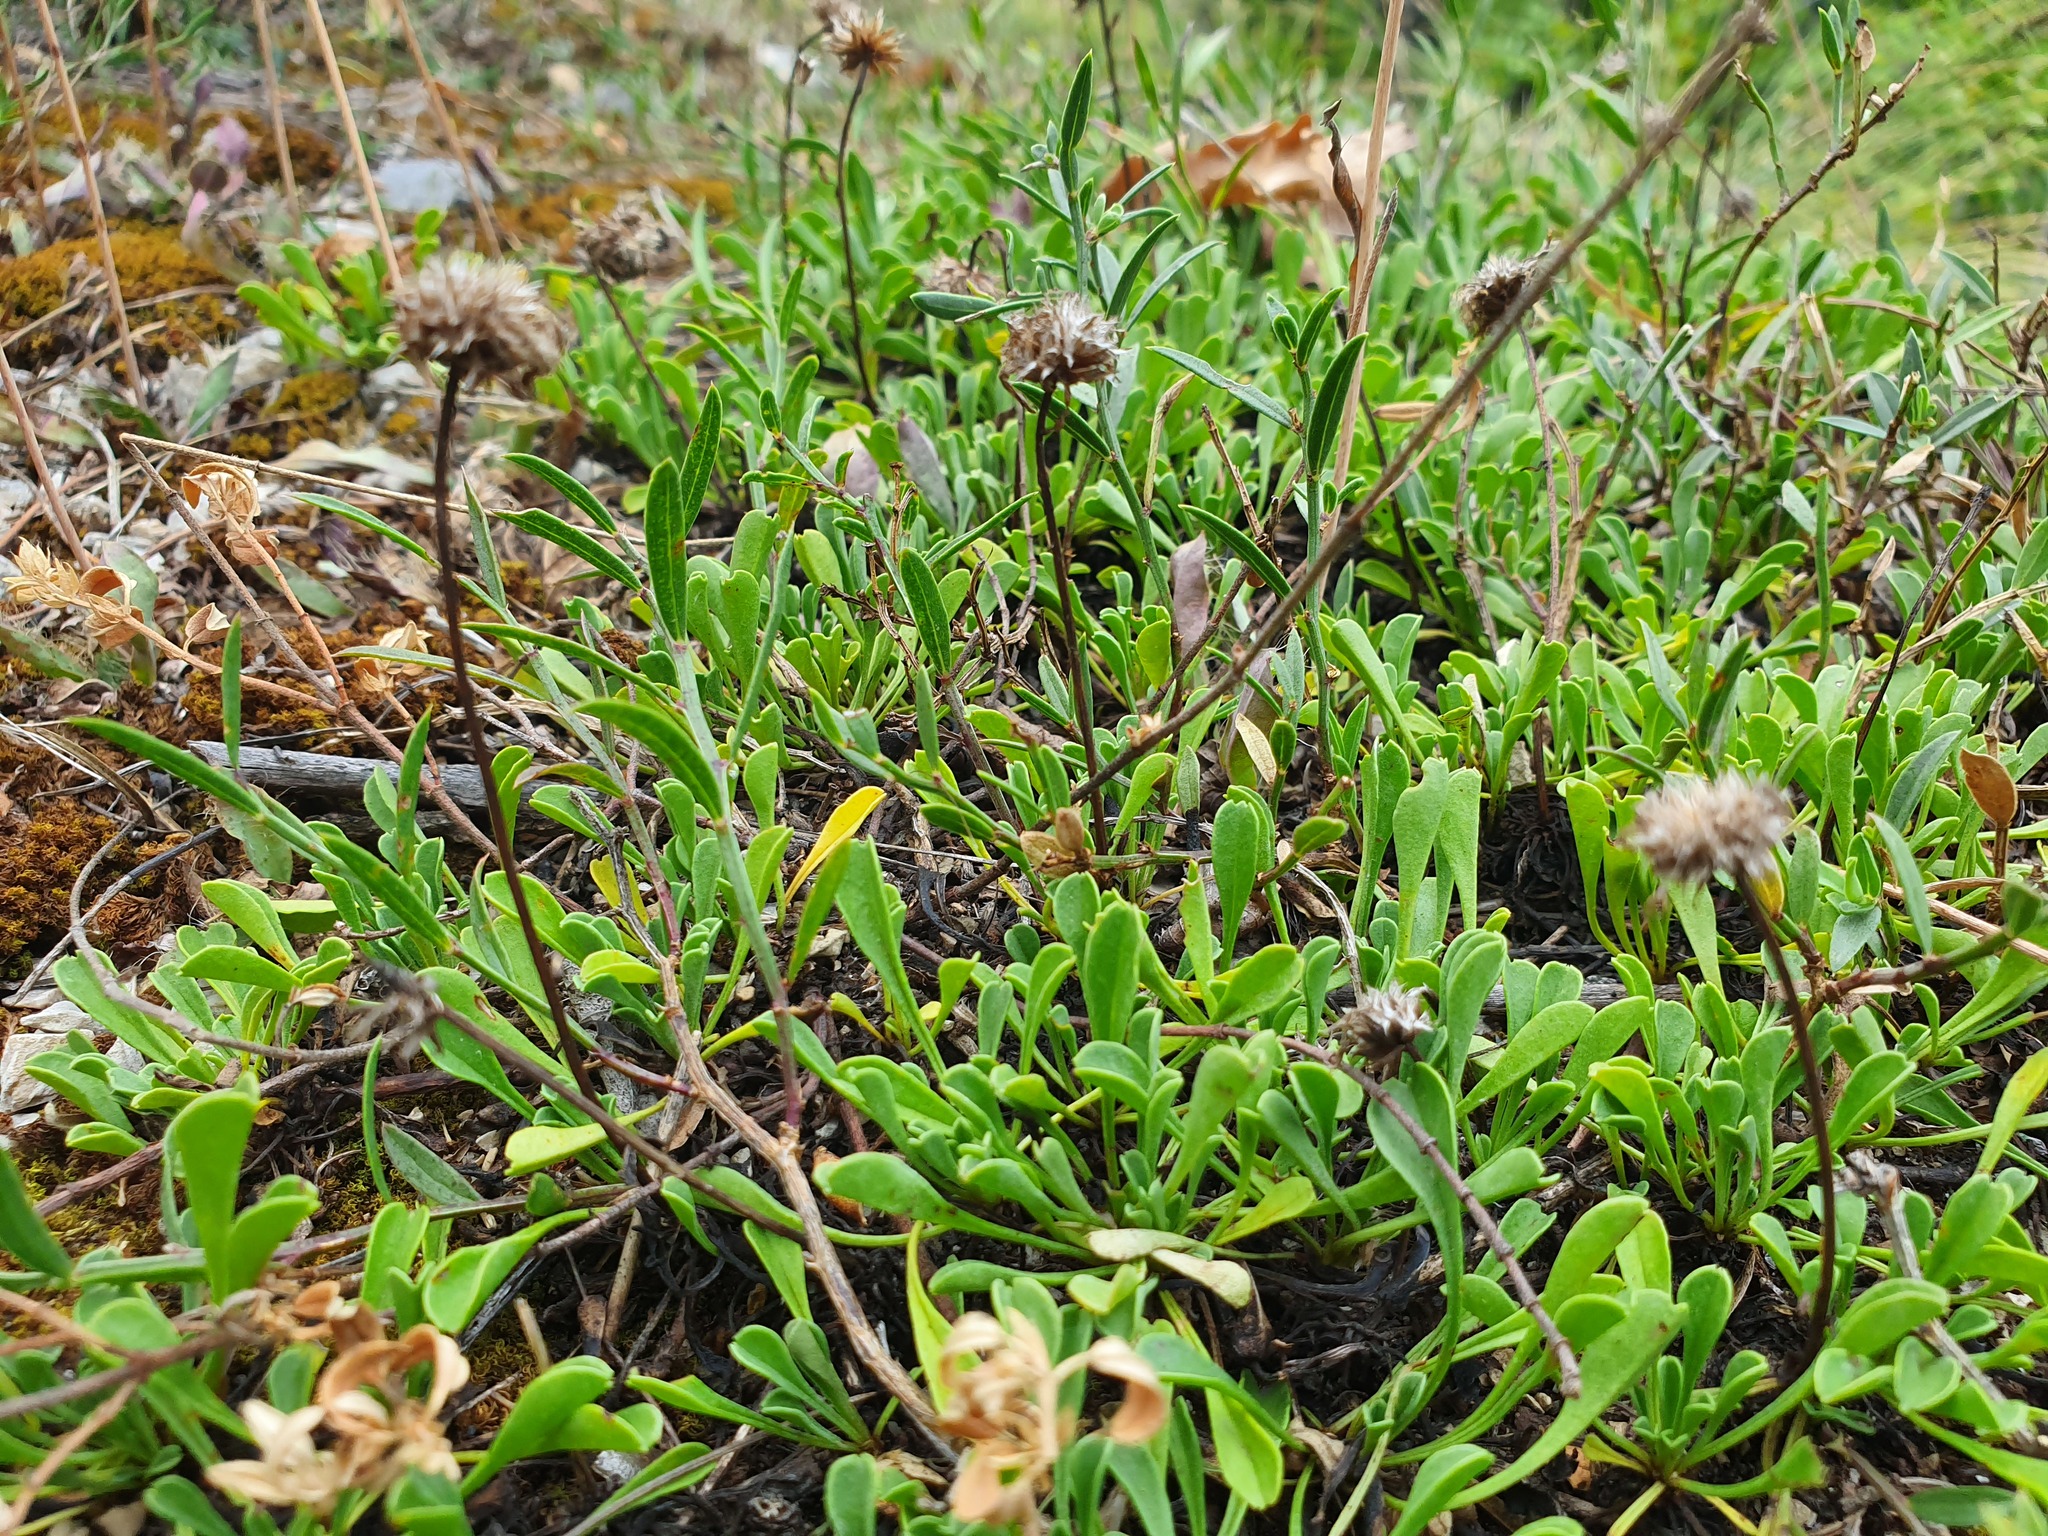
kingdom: Plantae
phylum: Tracheophyta
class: Magnoliopsida
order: Lamiales
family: Plantaginaceae
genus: Globularia
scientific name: Globularia cordifolia
